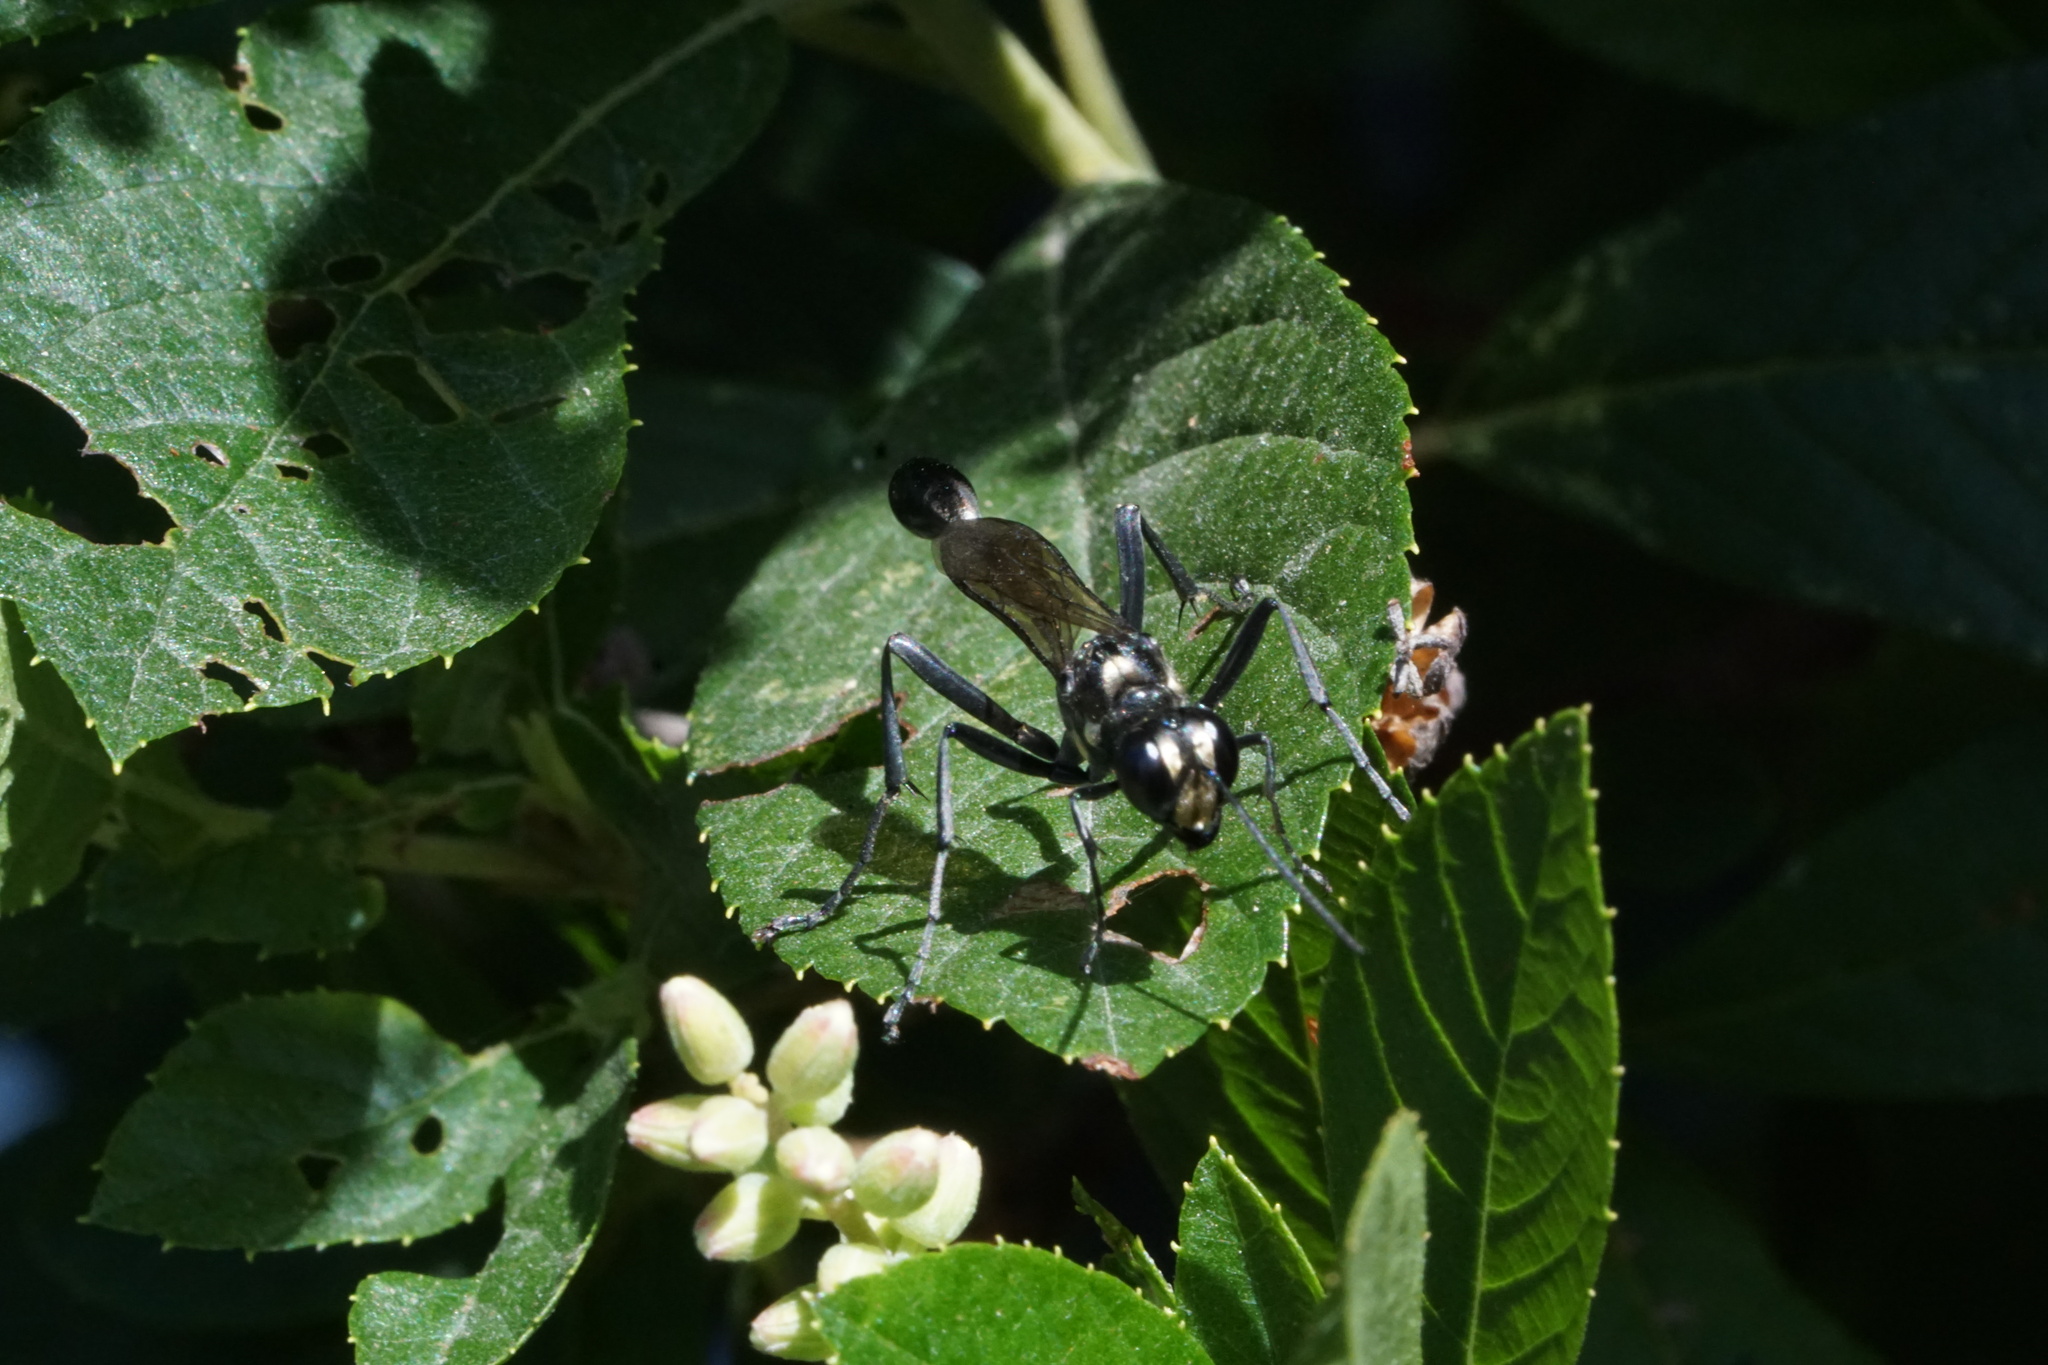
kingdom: Animalia
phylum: Arthropoda
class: Insecta
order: Hymenoptera
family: Sphecidae
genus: Eremnophila
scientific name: Eremnophila aureonotata
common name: Gold-marked thread-waisted wasp
